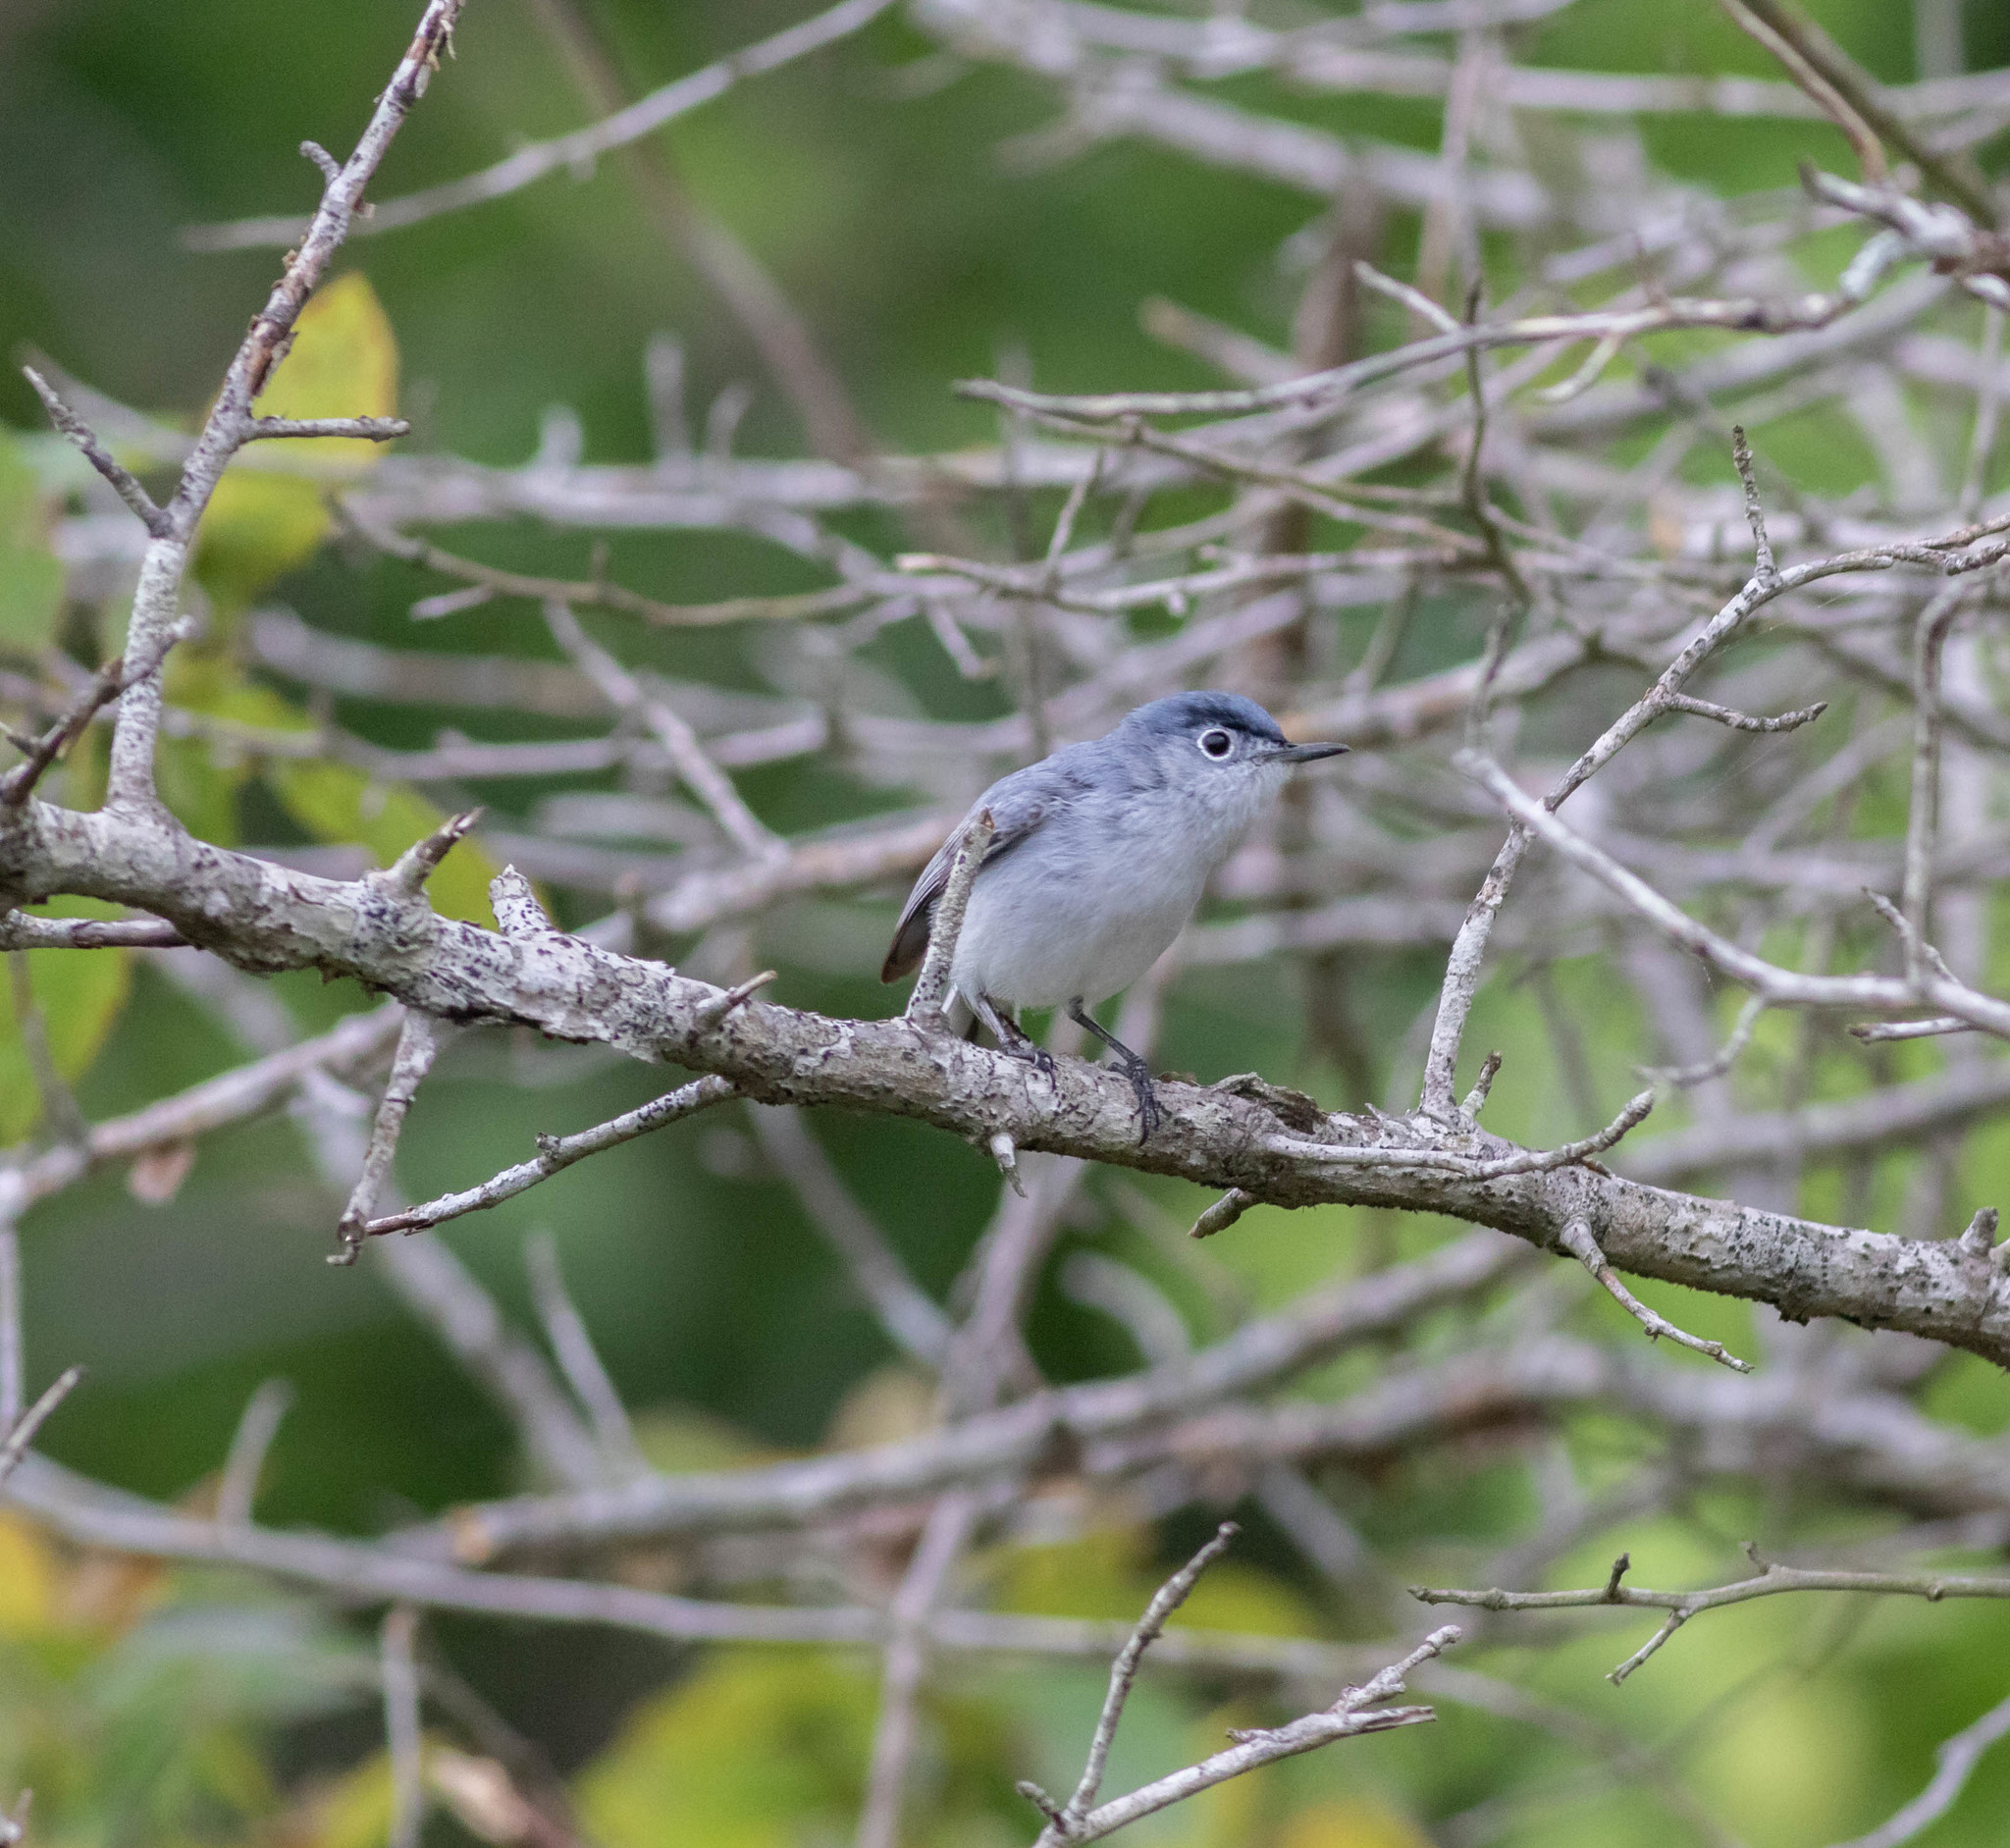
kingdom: Animalia
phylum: Chordata
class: Aves
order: Passeriformes
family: Polioptilidae
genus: Polioptila
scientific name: Polioptila caerulea
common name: Blue-gray gnatcatcher
